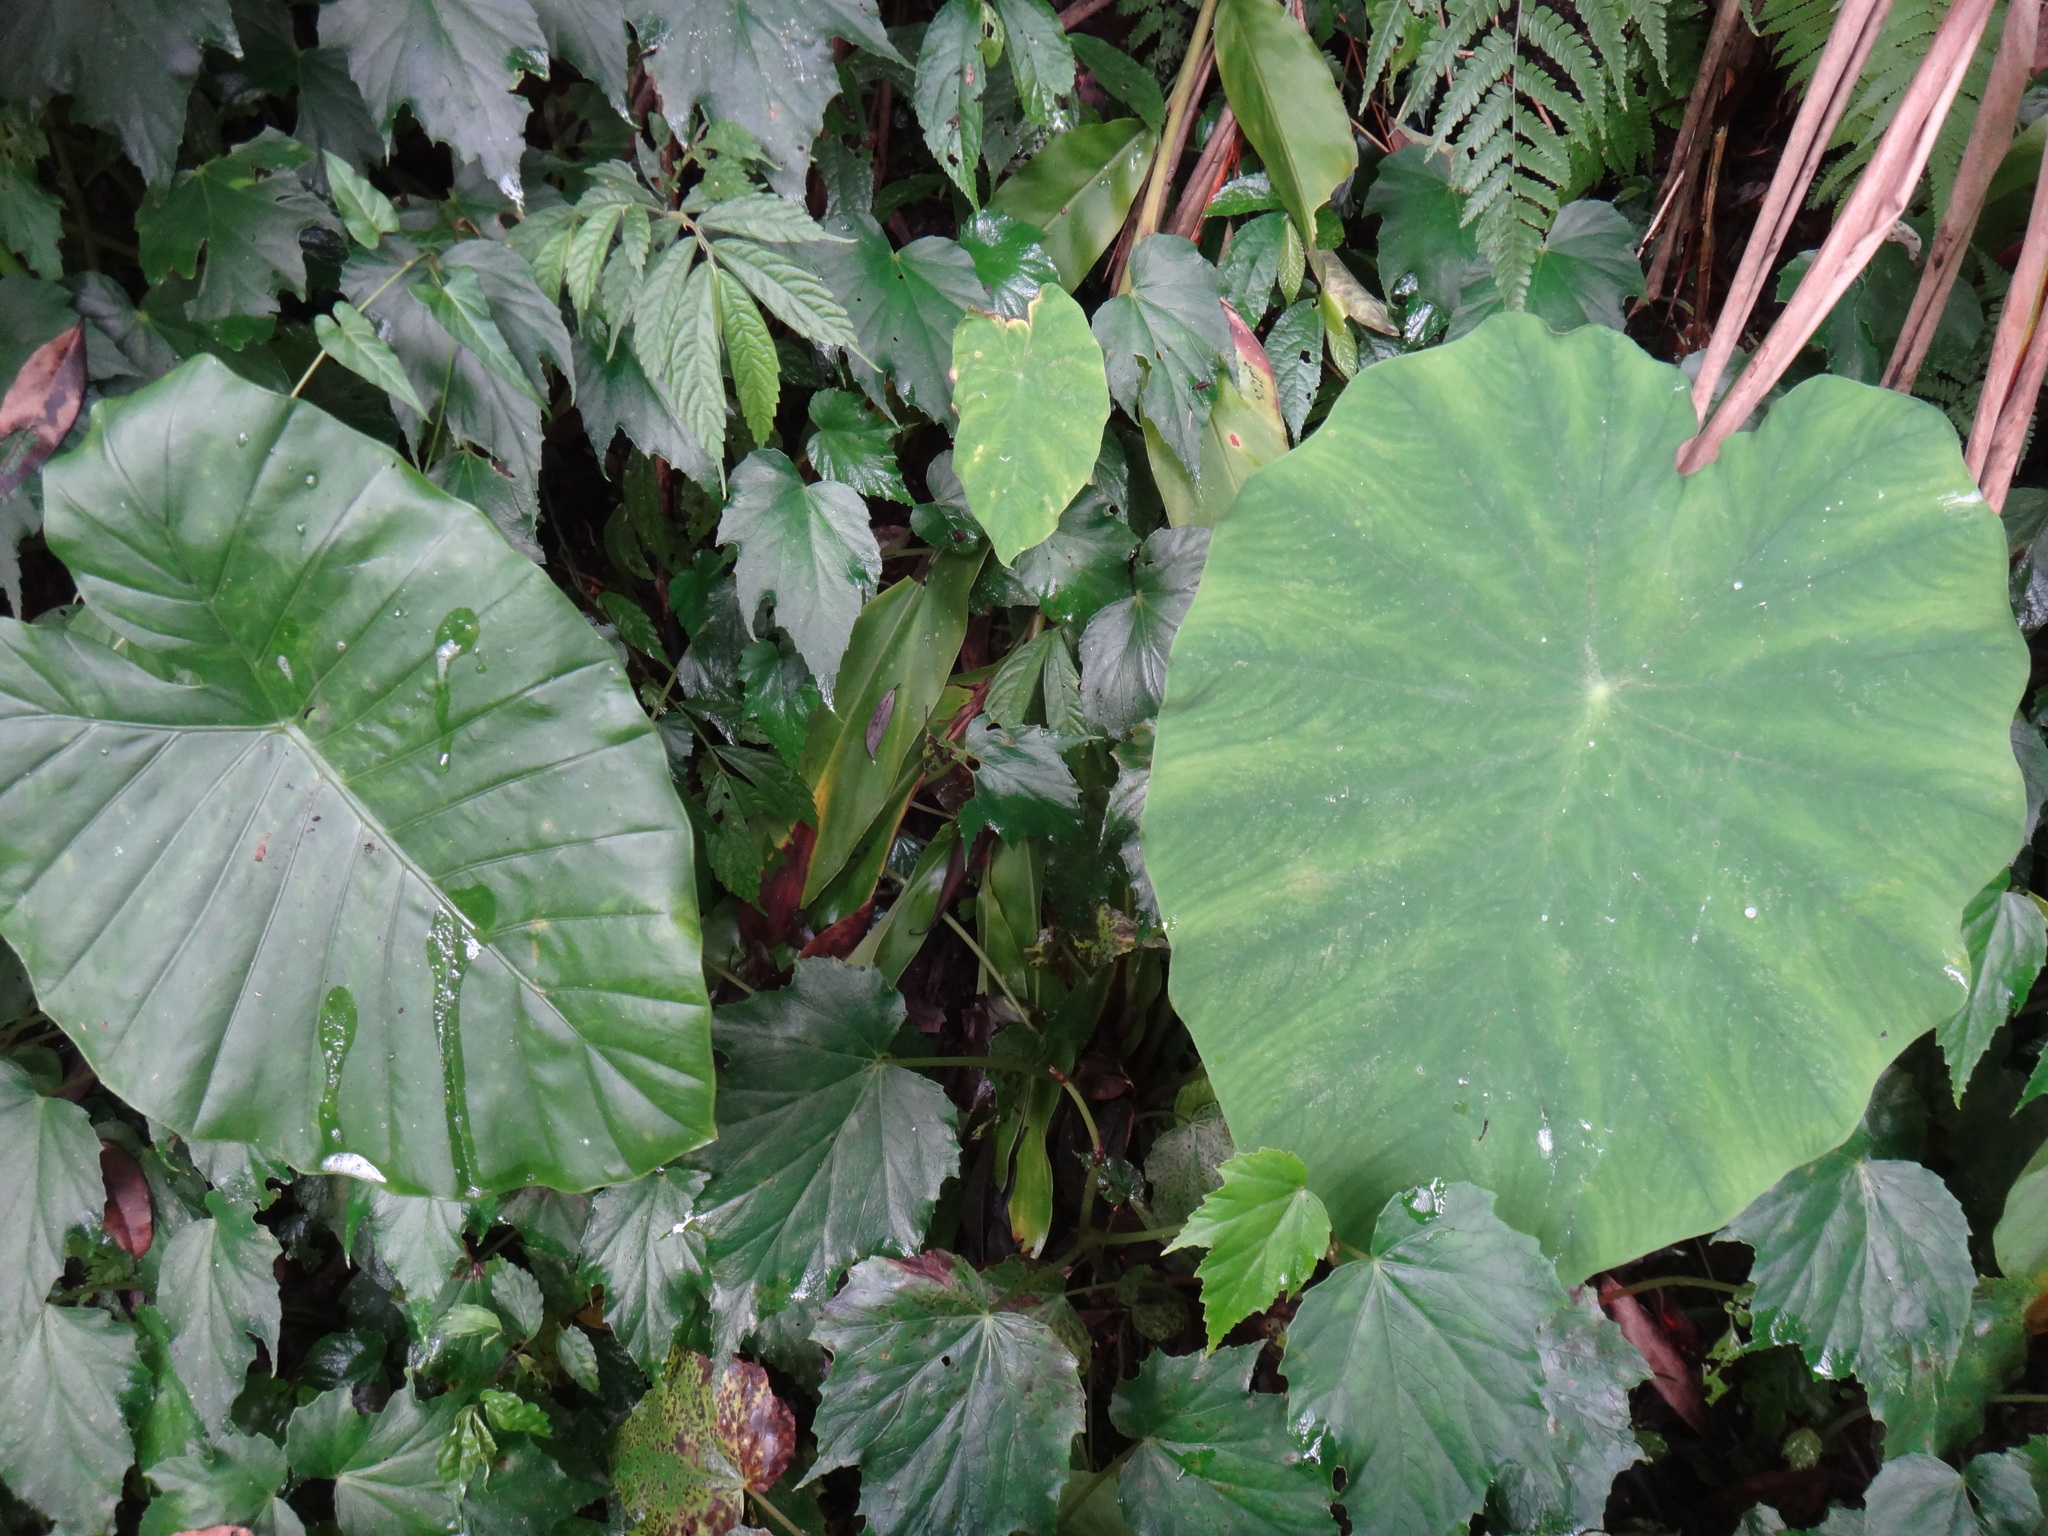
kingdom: Plantae
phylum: Tracheophyta
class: Liliopsida
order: Alismatales
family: Araceae
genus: Colocasia
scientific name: Colocasia esculenta
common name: Taro
